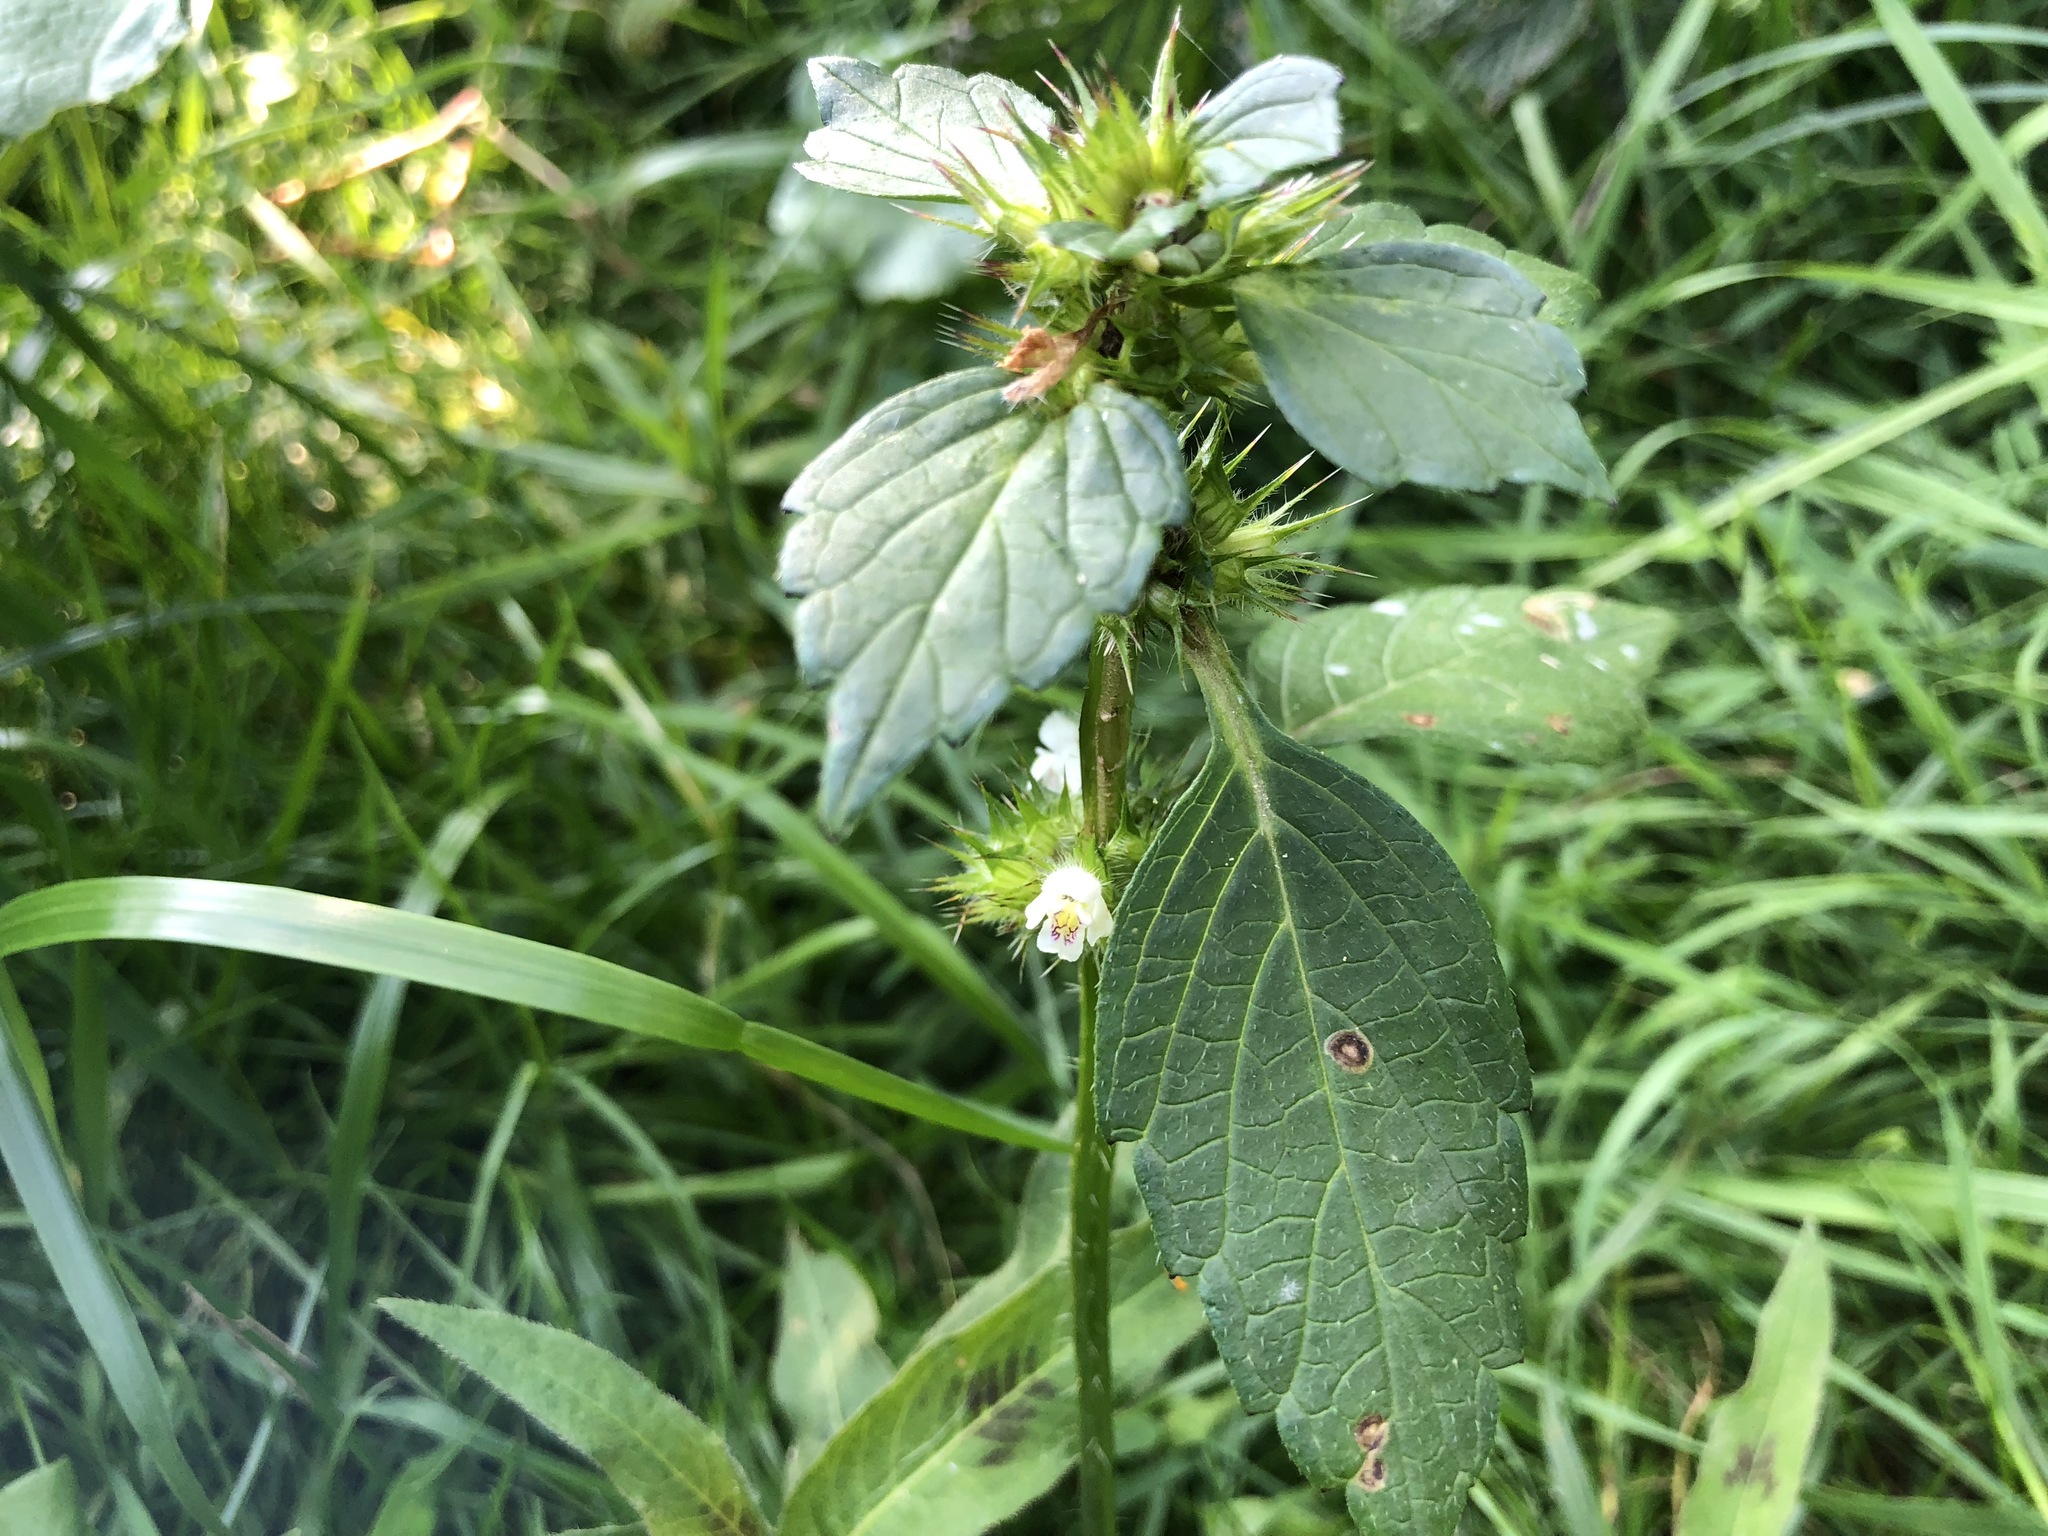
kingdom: Plantae
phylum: Tracheophyta
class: Magnoliopsida
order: Lamiales
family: Lamiaceae
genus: Galeopsis
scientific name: Galeopsis tetrahit
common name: Common hemp-nettle
